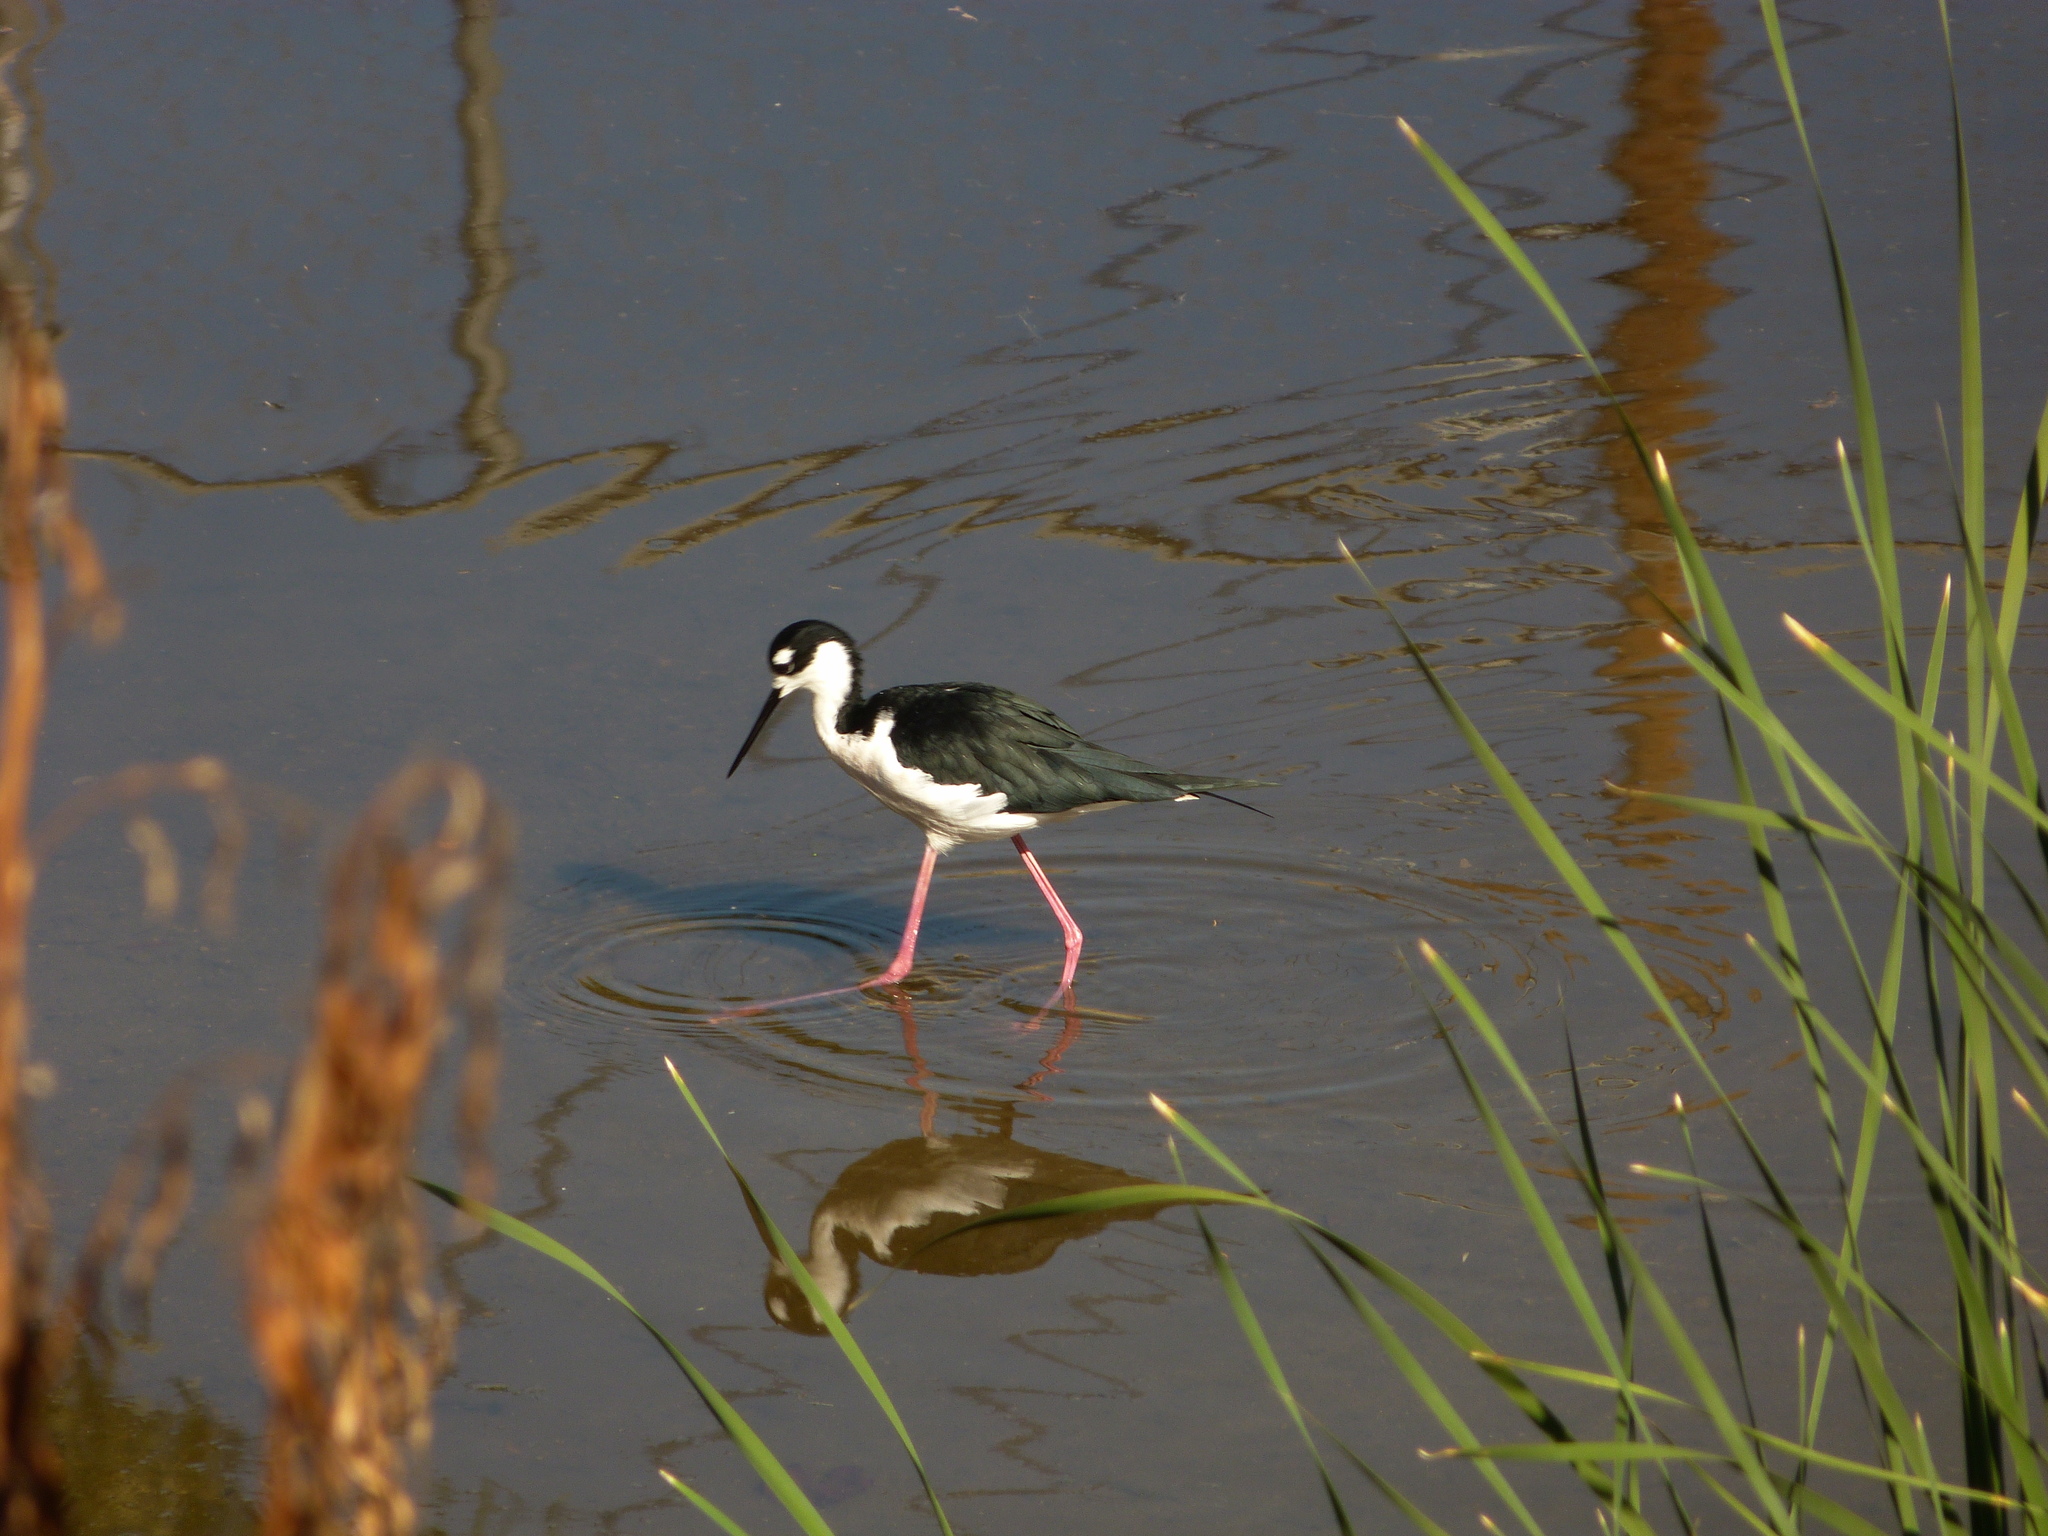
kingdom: Animalia
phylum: Chordata
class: Aves
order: Charadriiformes
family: Recurvirostridae
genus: Himantopus
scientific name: Himantopus mexicanus
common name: Black-necked stilt
